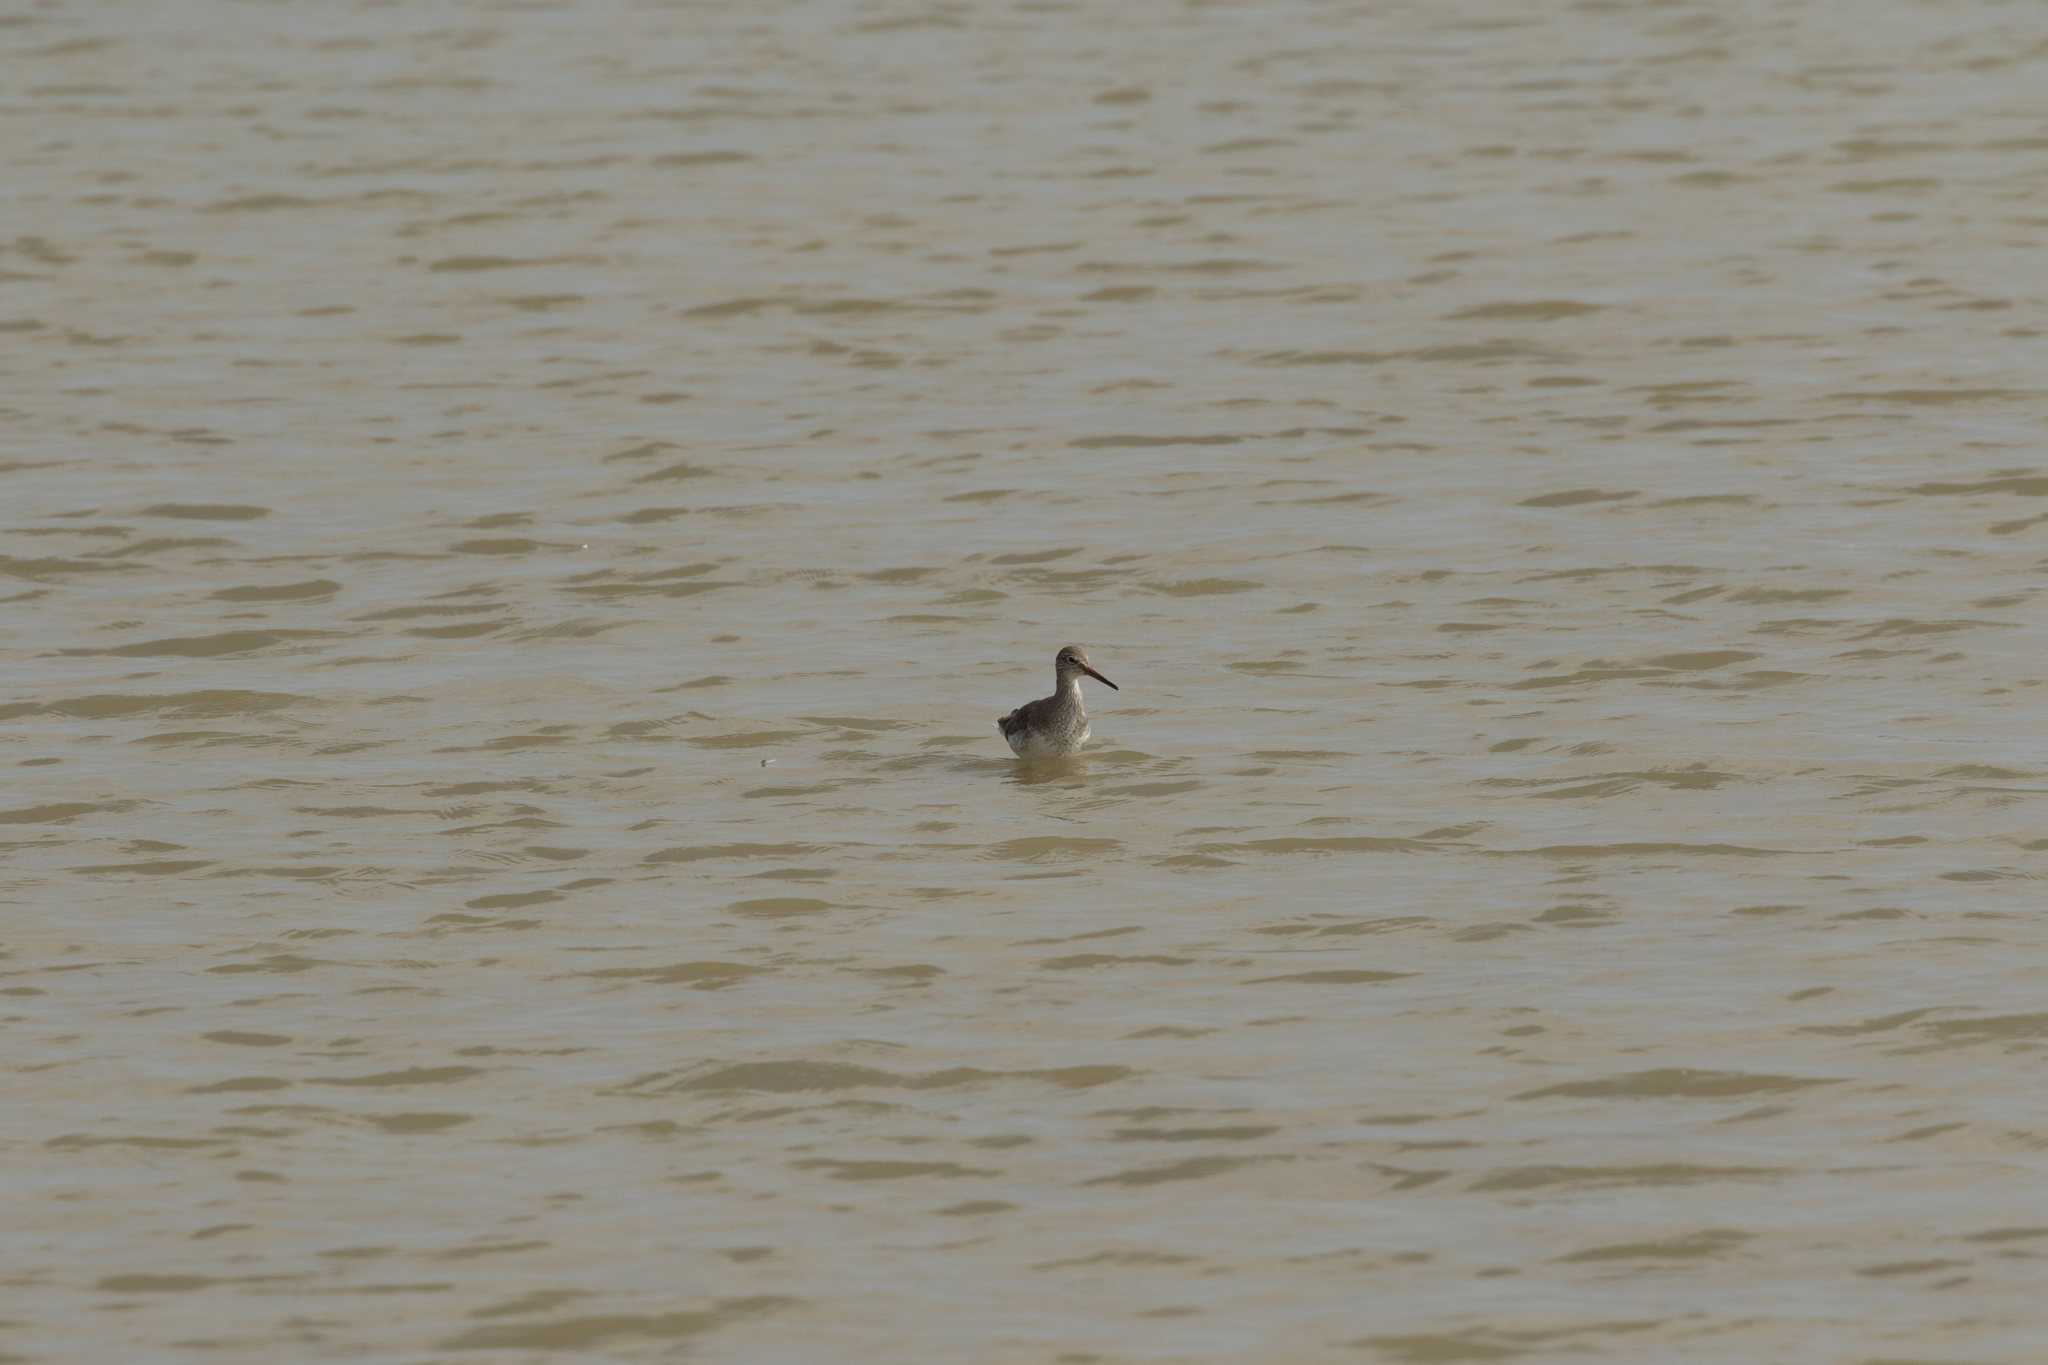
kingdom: Animalia
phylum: Chordata
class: Aves
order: Charadriiformes
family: Scolopacidae
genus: Tringa
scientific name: Tringa totanus
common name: Common redshank
